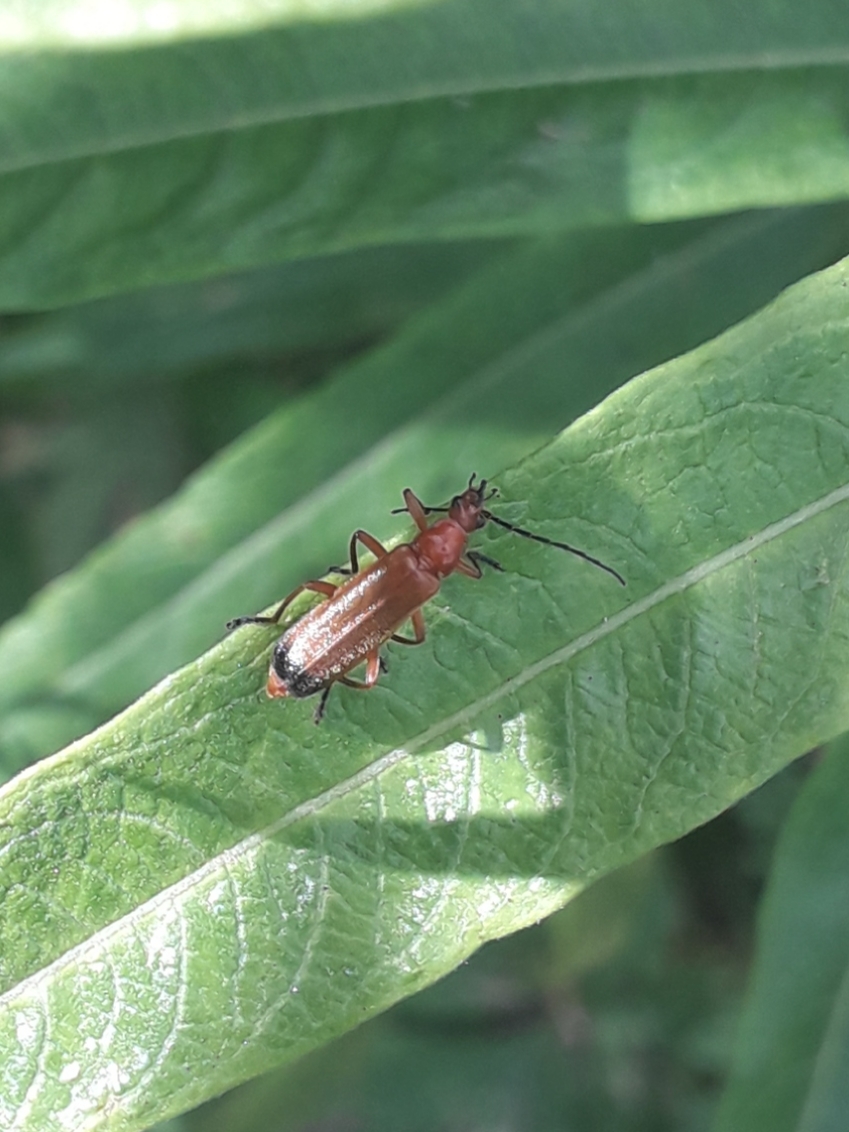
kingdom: Animalia
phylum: Arthropoda
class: Insecta
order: Coleoptera
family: Cantharidae
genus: Rhagonycha
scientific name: Rhagonycha fulva
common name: Common red soldier beetle
